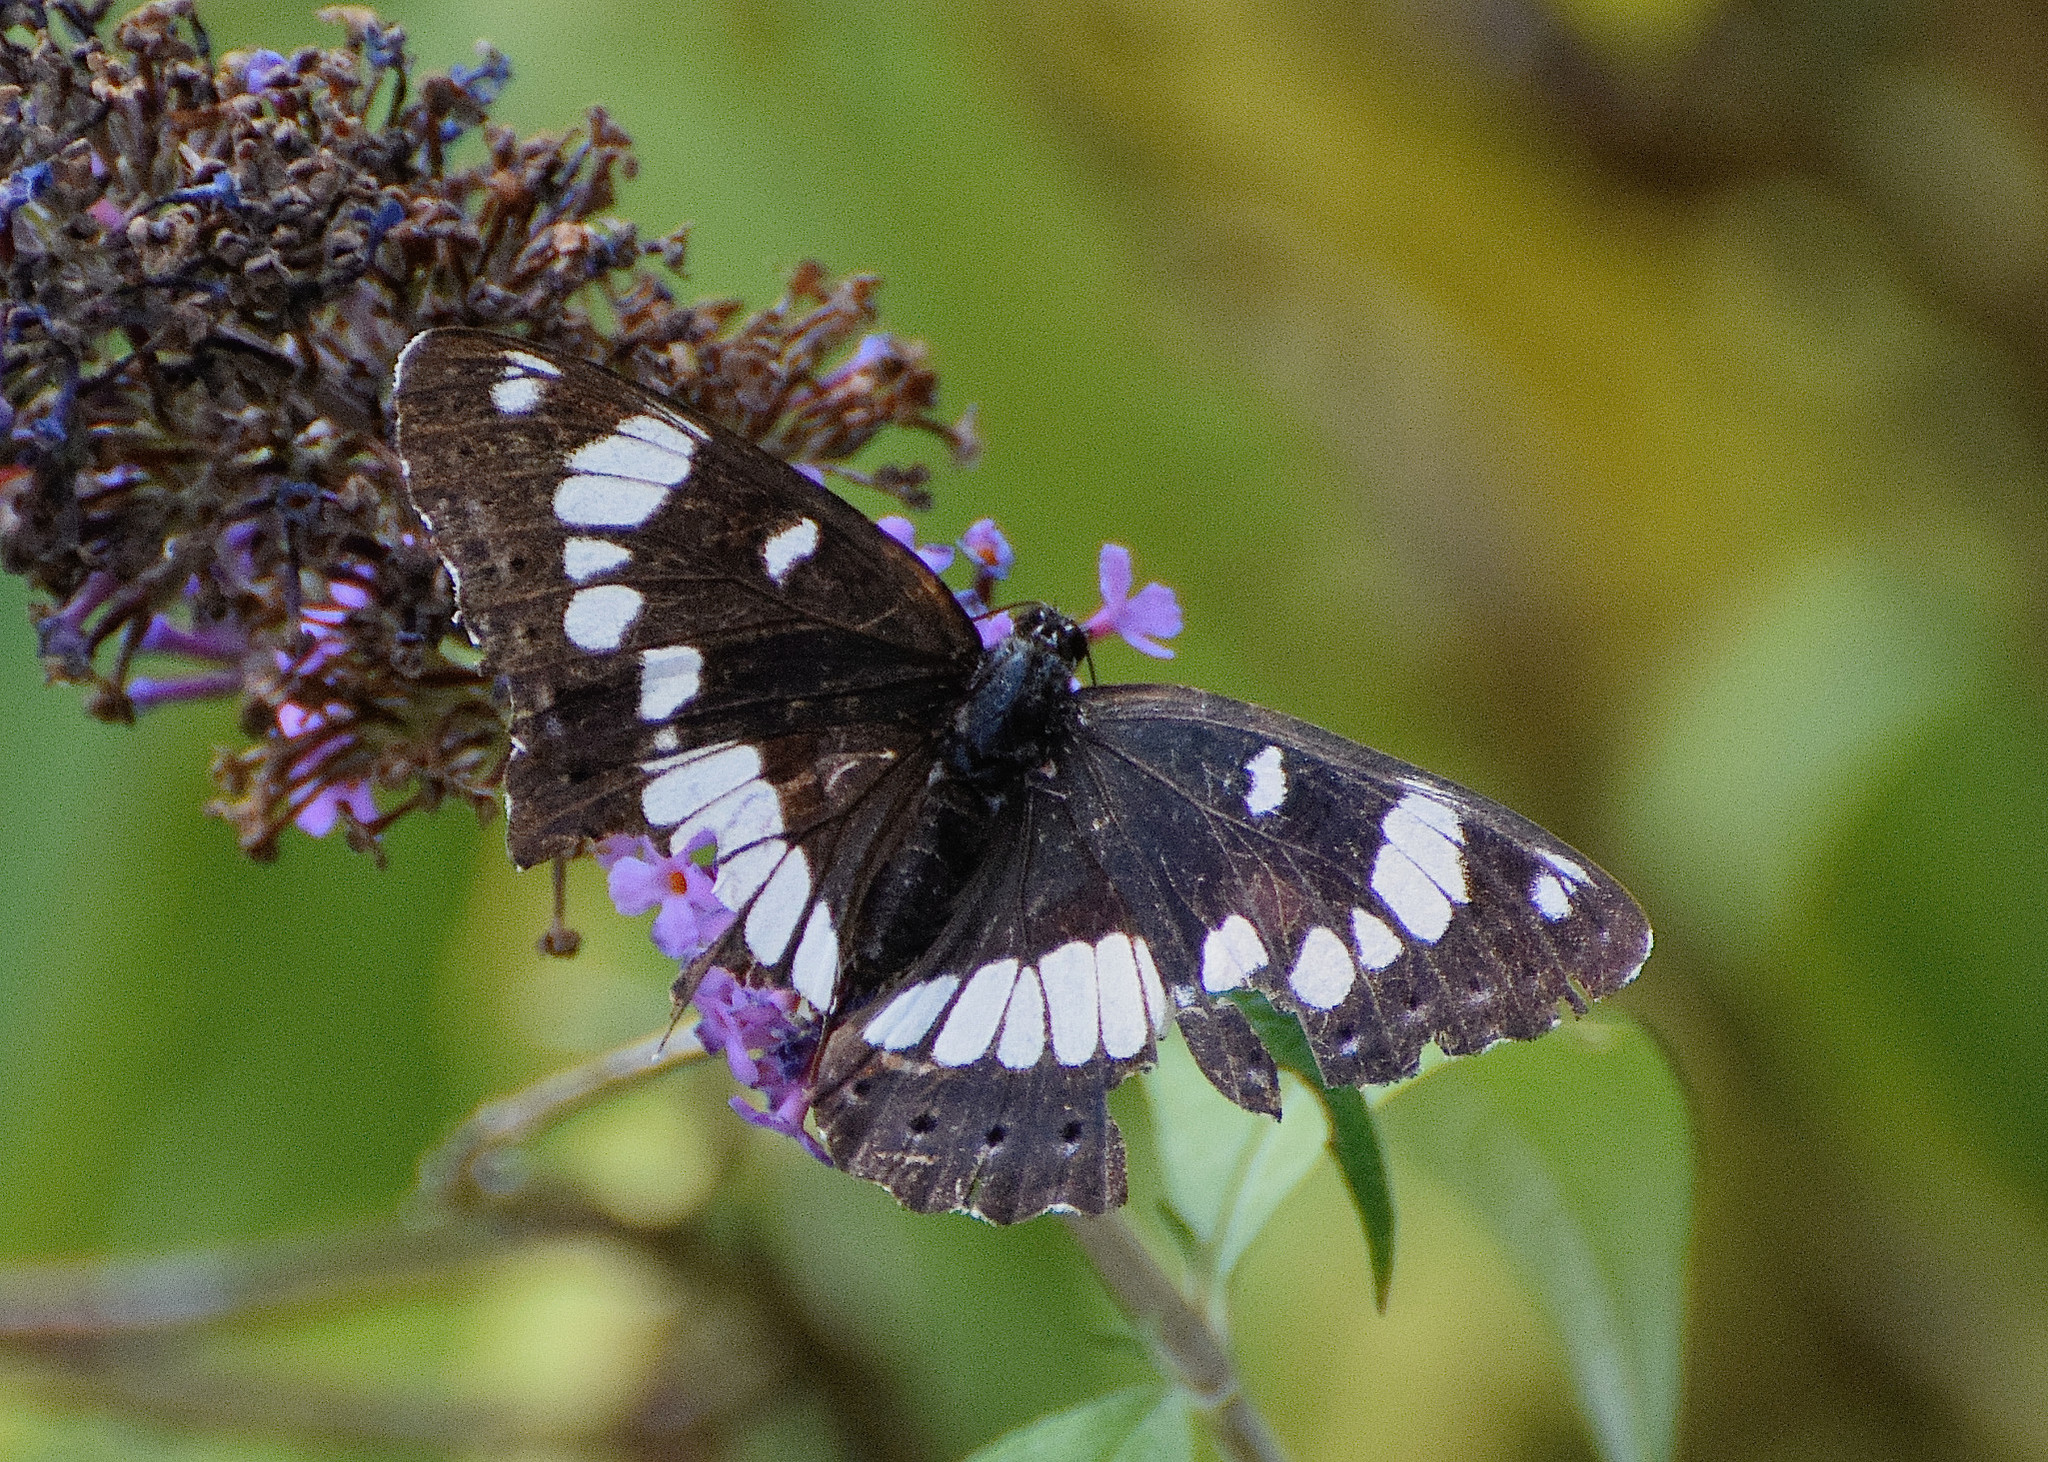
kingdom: Animalia
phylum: Arthropoda
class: Insecta
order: Lepidoptera
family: Nymphalidae
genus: Limenitis
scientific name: Limenitis reducta
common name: Southern white admiral
